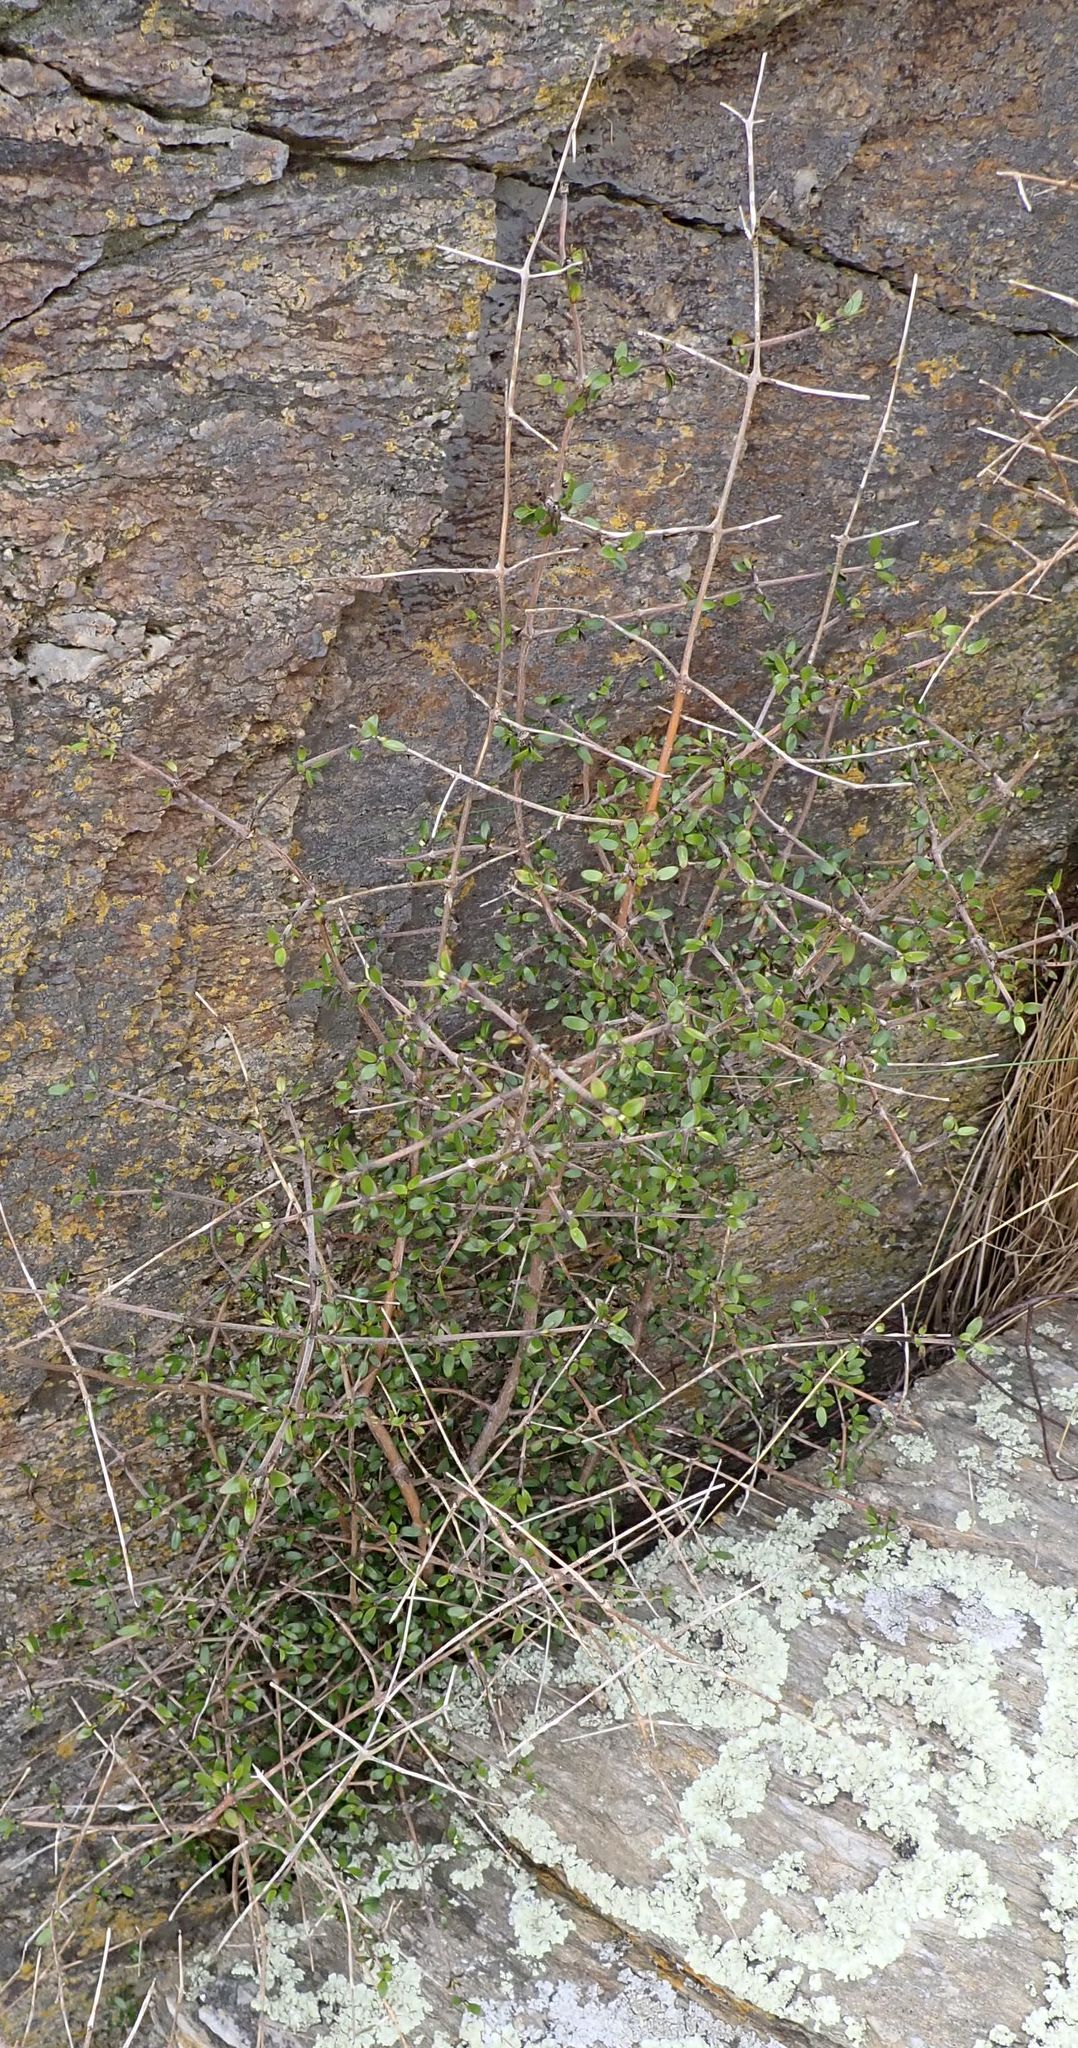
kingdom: Plantae
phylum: Tracheophyta
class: Magnoliopsida
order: Gentianales
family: Rubiaceae
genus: Coprosma
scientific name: Coprosma propinqua
